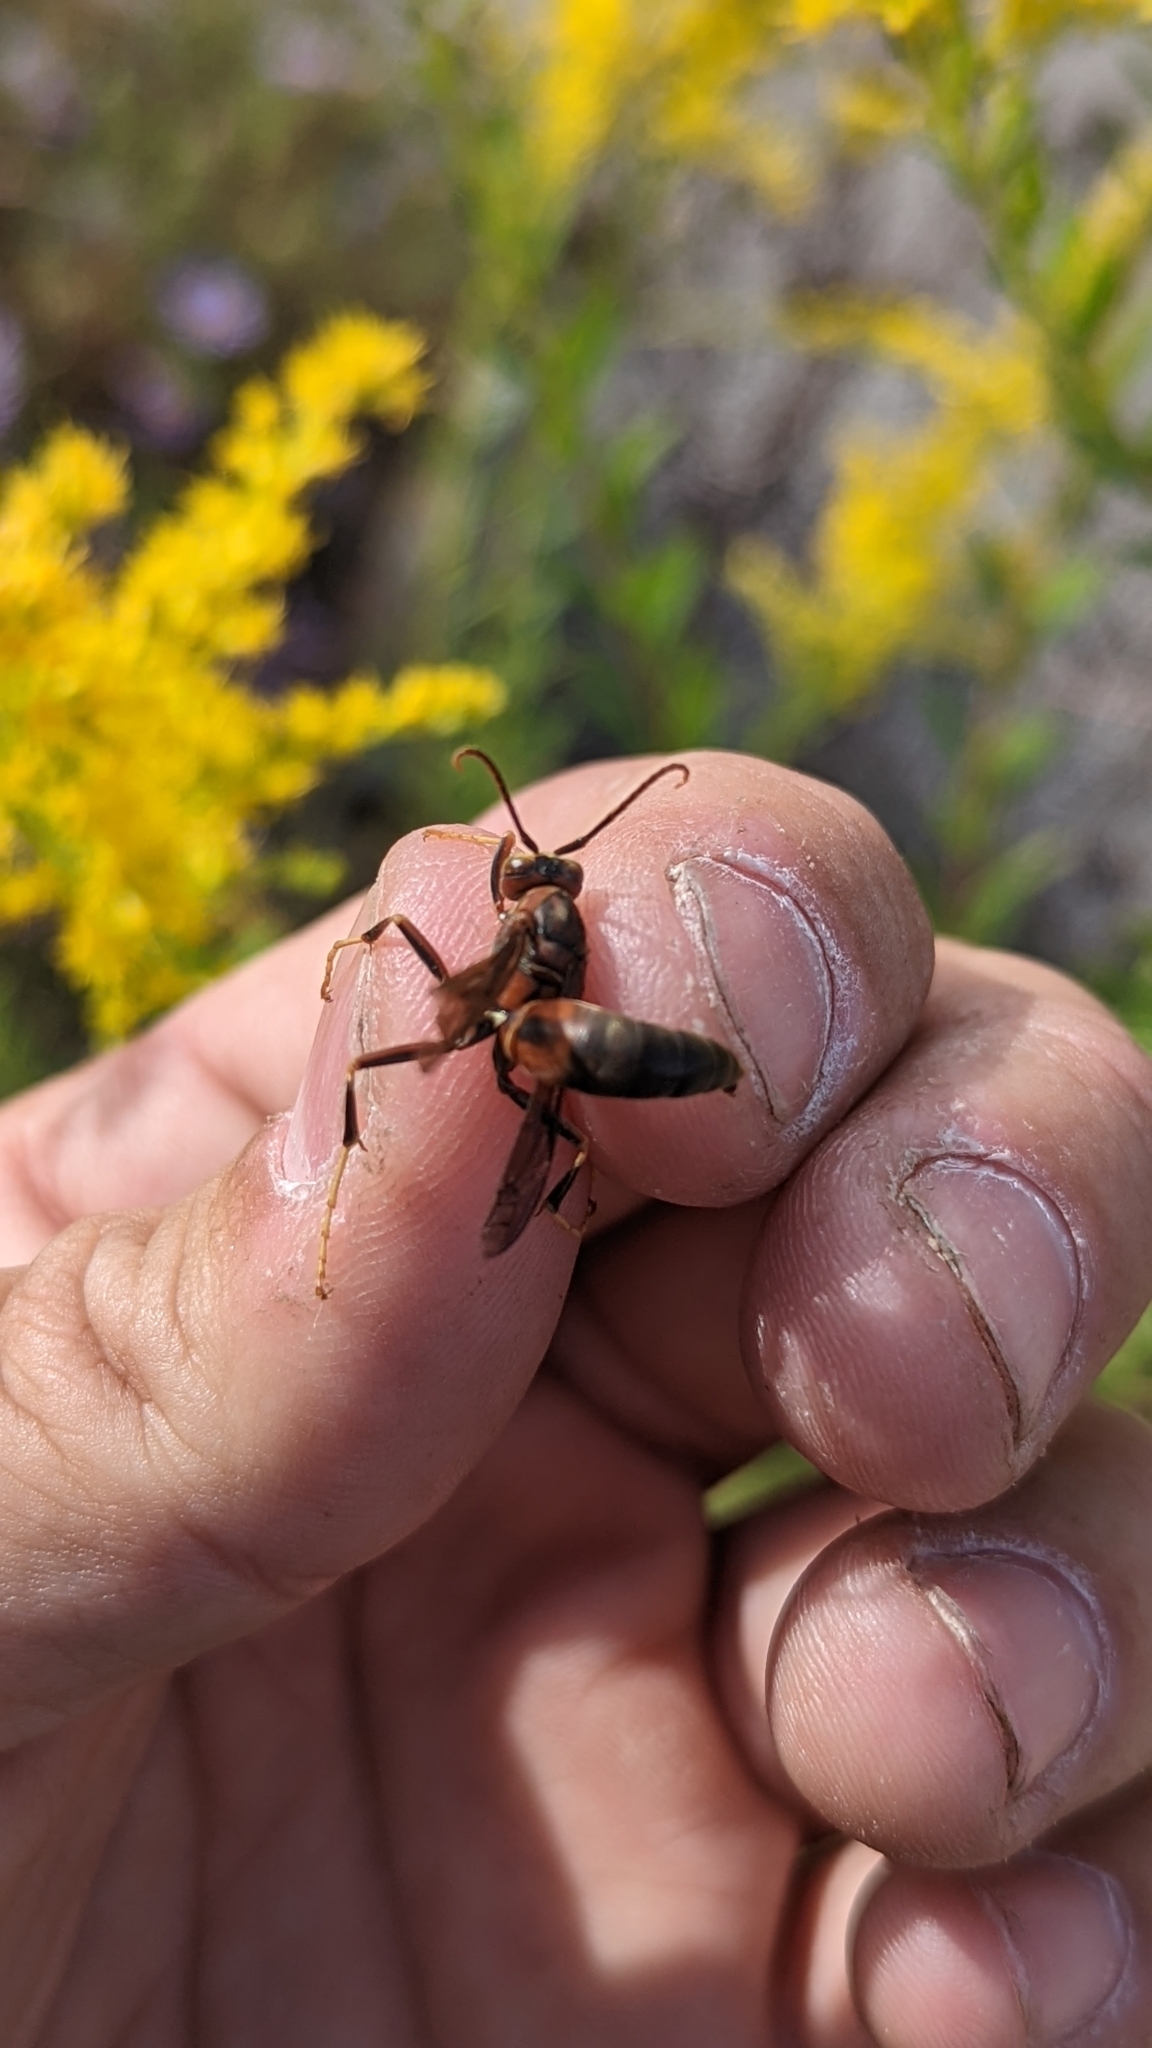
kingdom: Animalia
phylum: Arthropoda
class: Insecta
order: Hymenoptera
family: Eumenidae
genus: Polistes
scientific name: Polistes metricus
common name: Metric paper wasp
